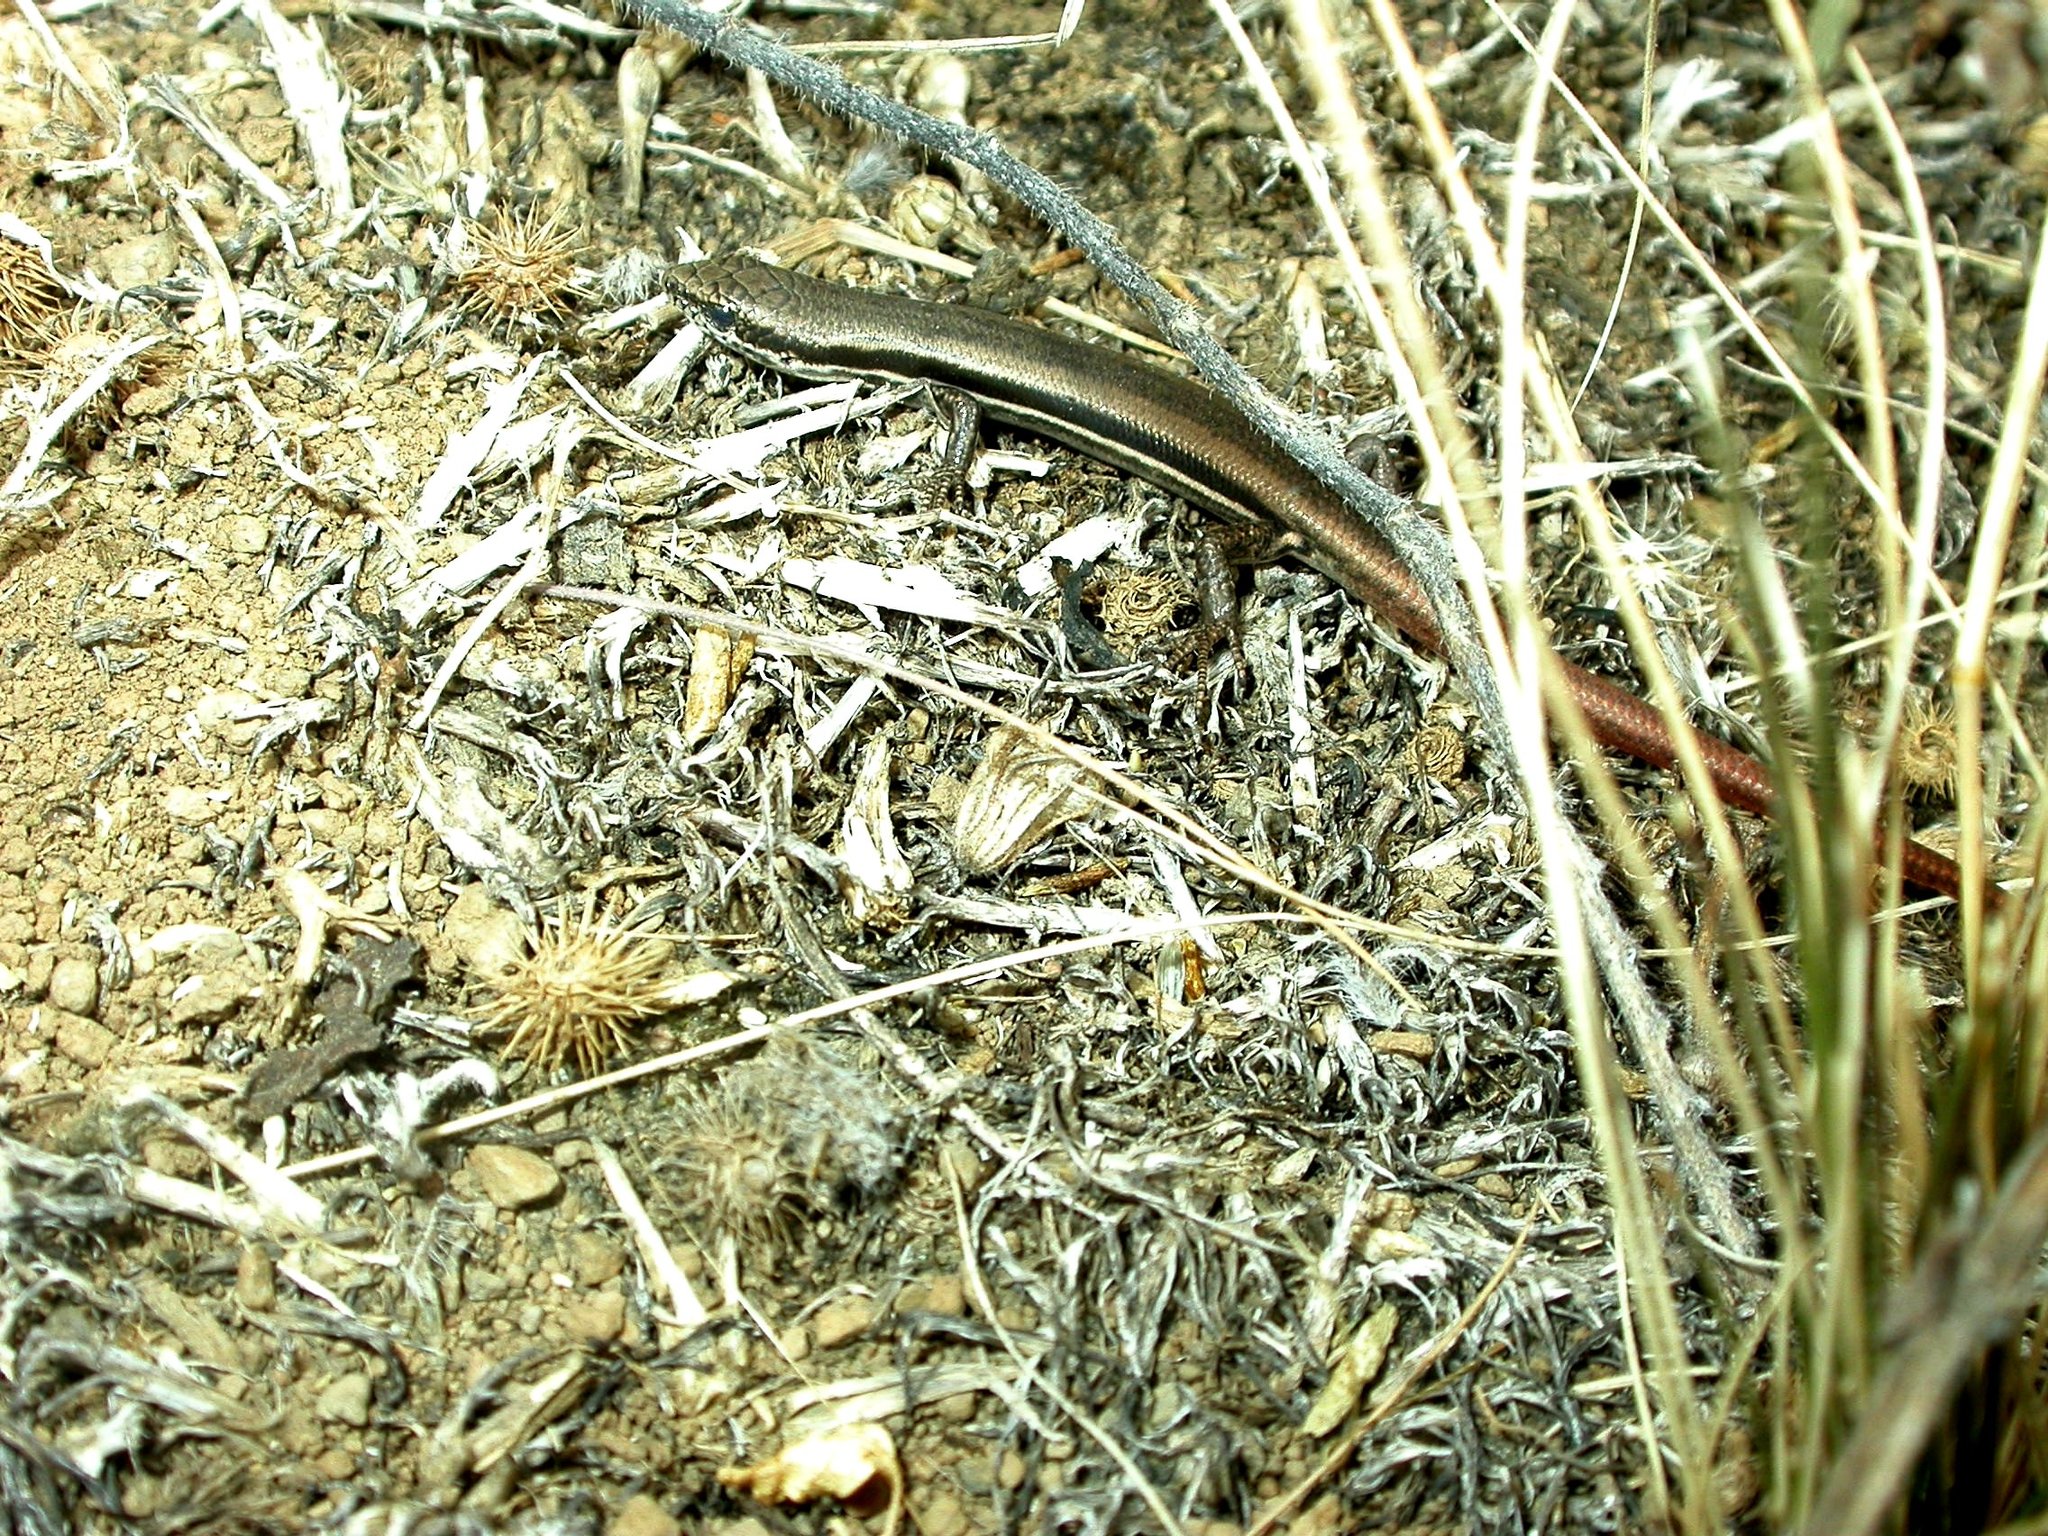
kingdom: Animalia
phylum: Chordata
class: Squamata
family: Scincidae
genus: Morethia
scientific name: Morethia boulengeri
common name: South-eastern morethia skink
